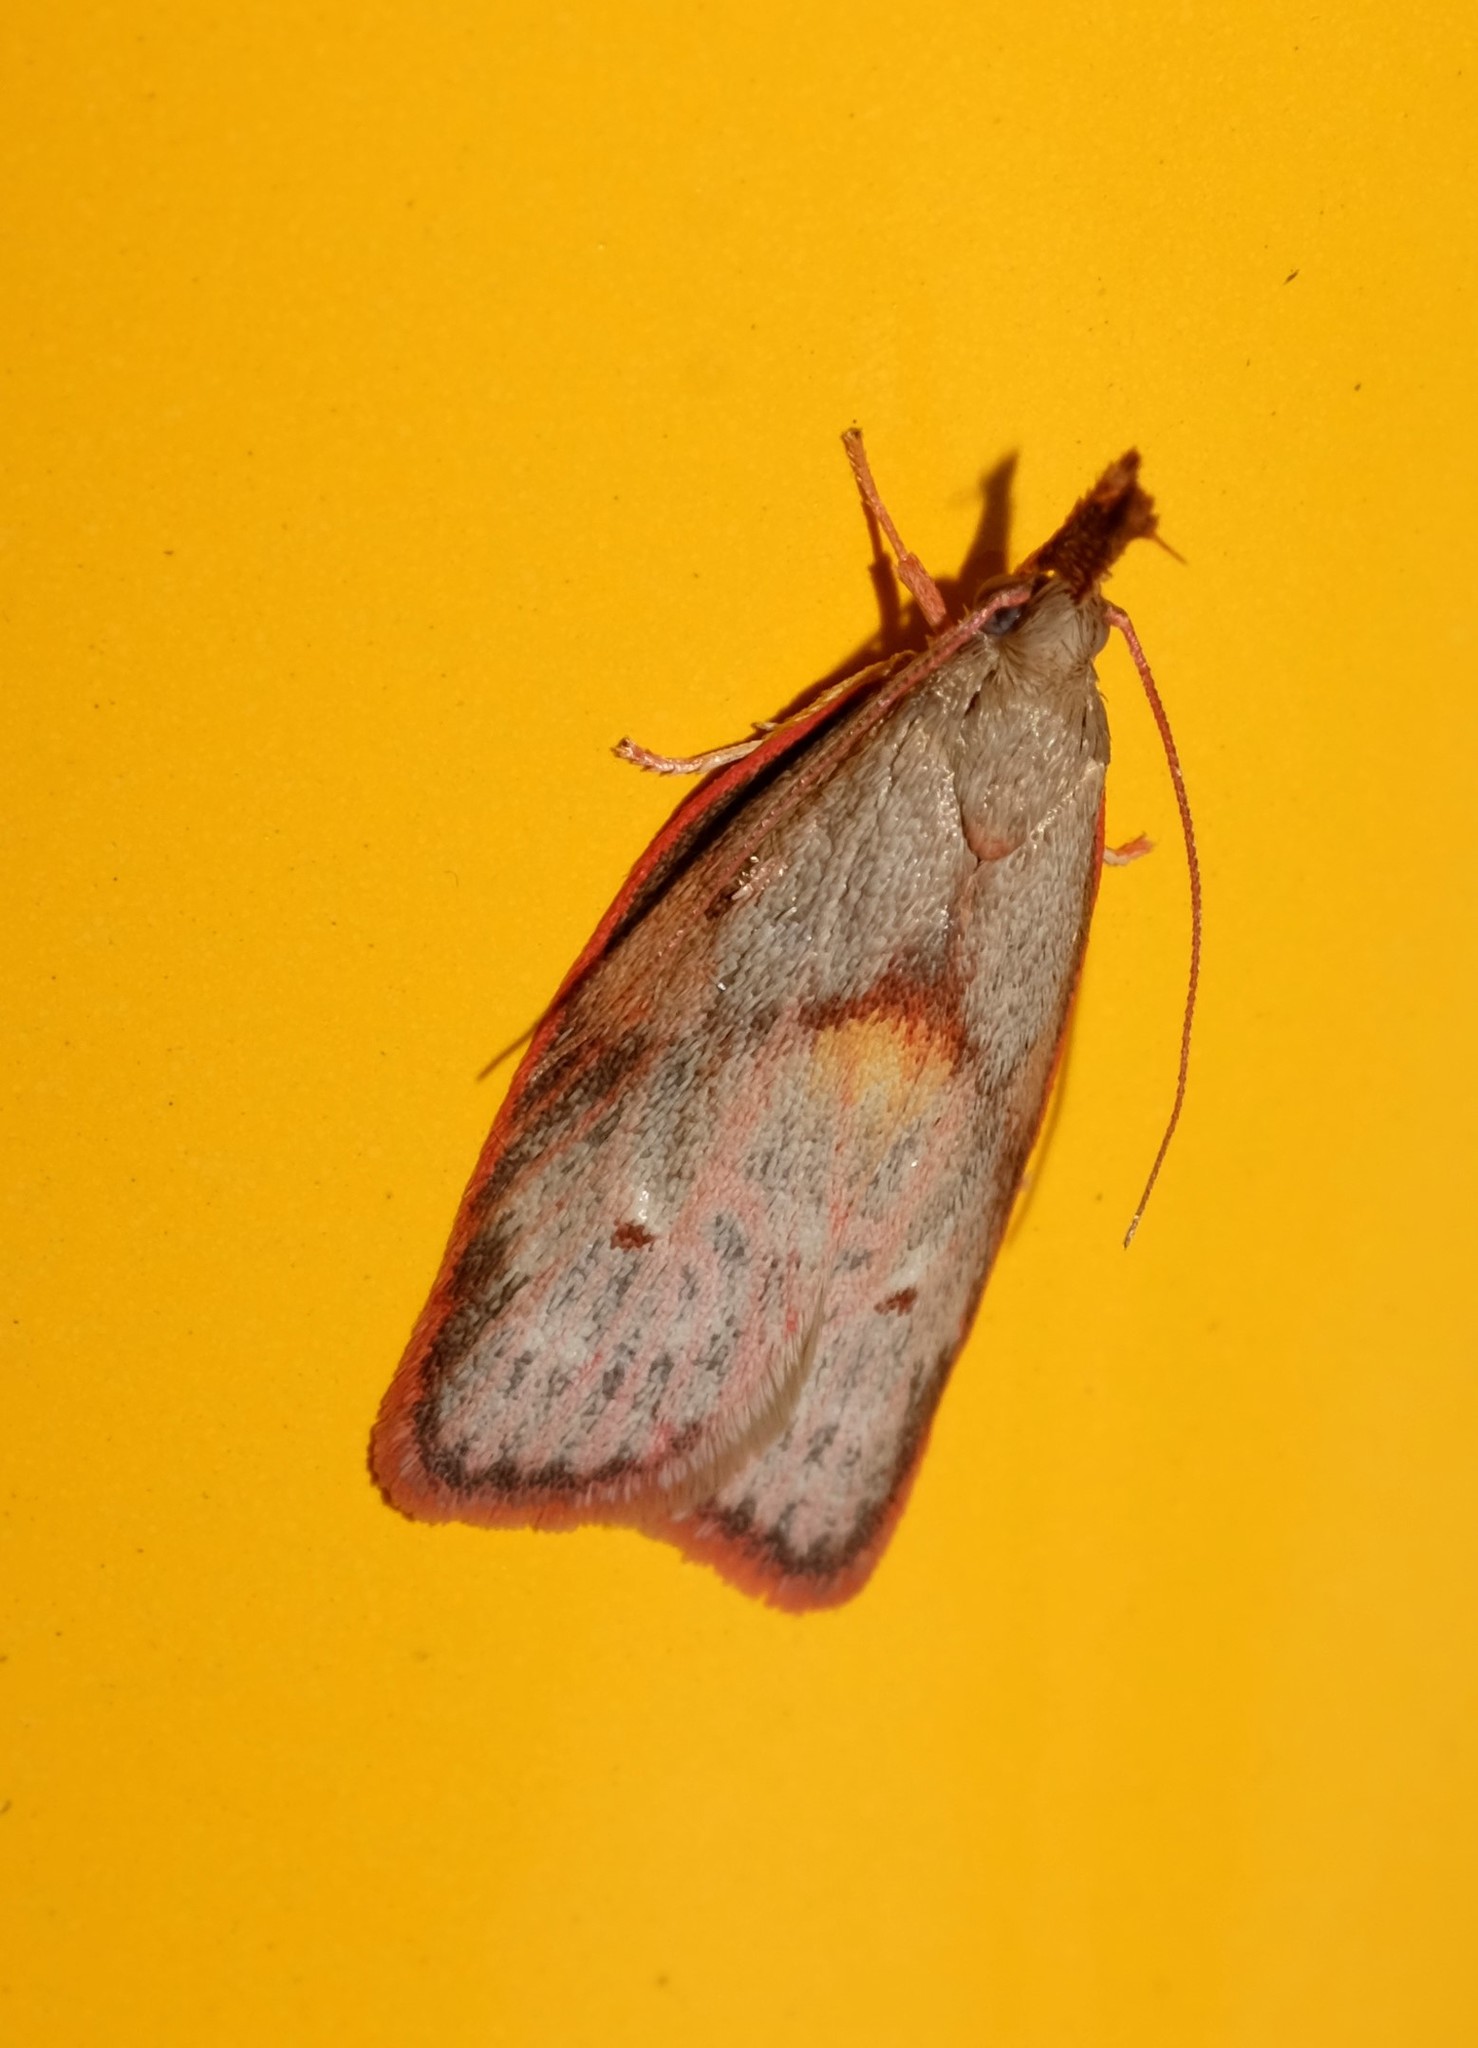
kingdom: Animalia
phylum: Arthropoda
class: Insecta
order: Lepidoptera
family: Depressariidae
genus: Enchocrates
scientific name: Enchocrates glaucopis
